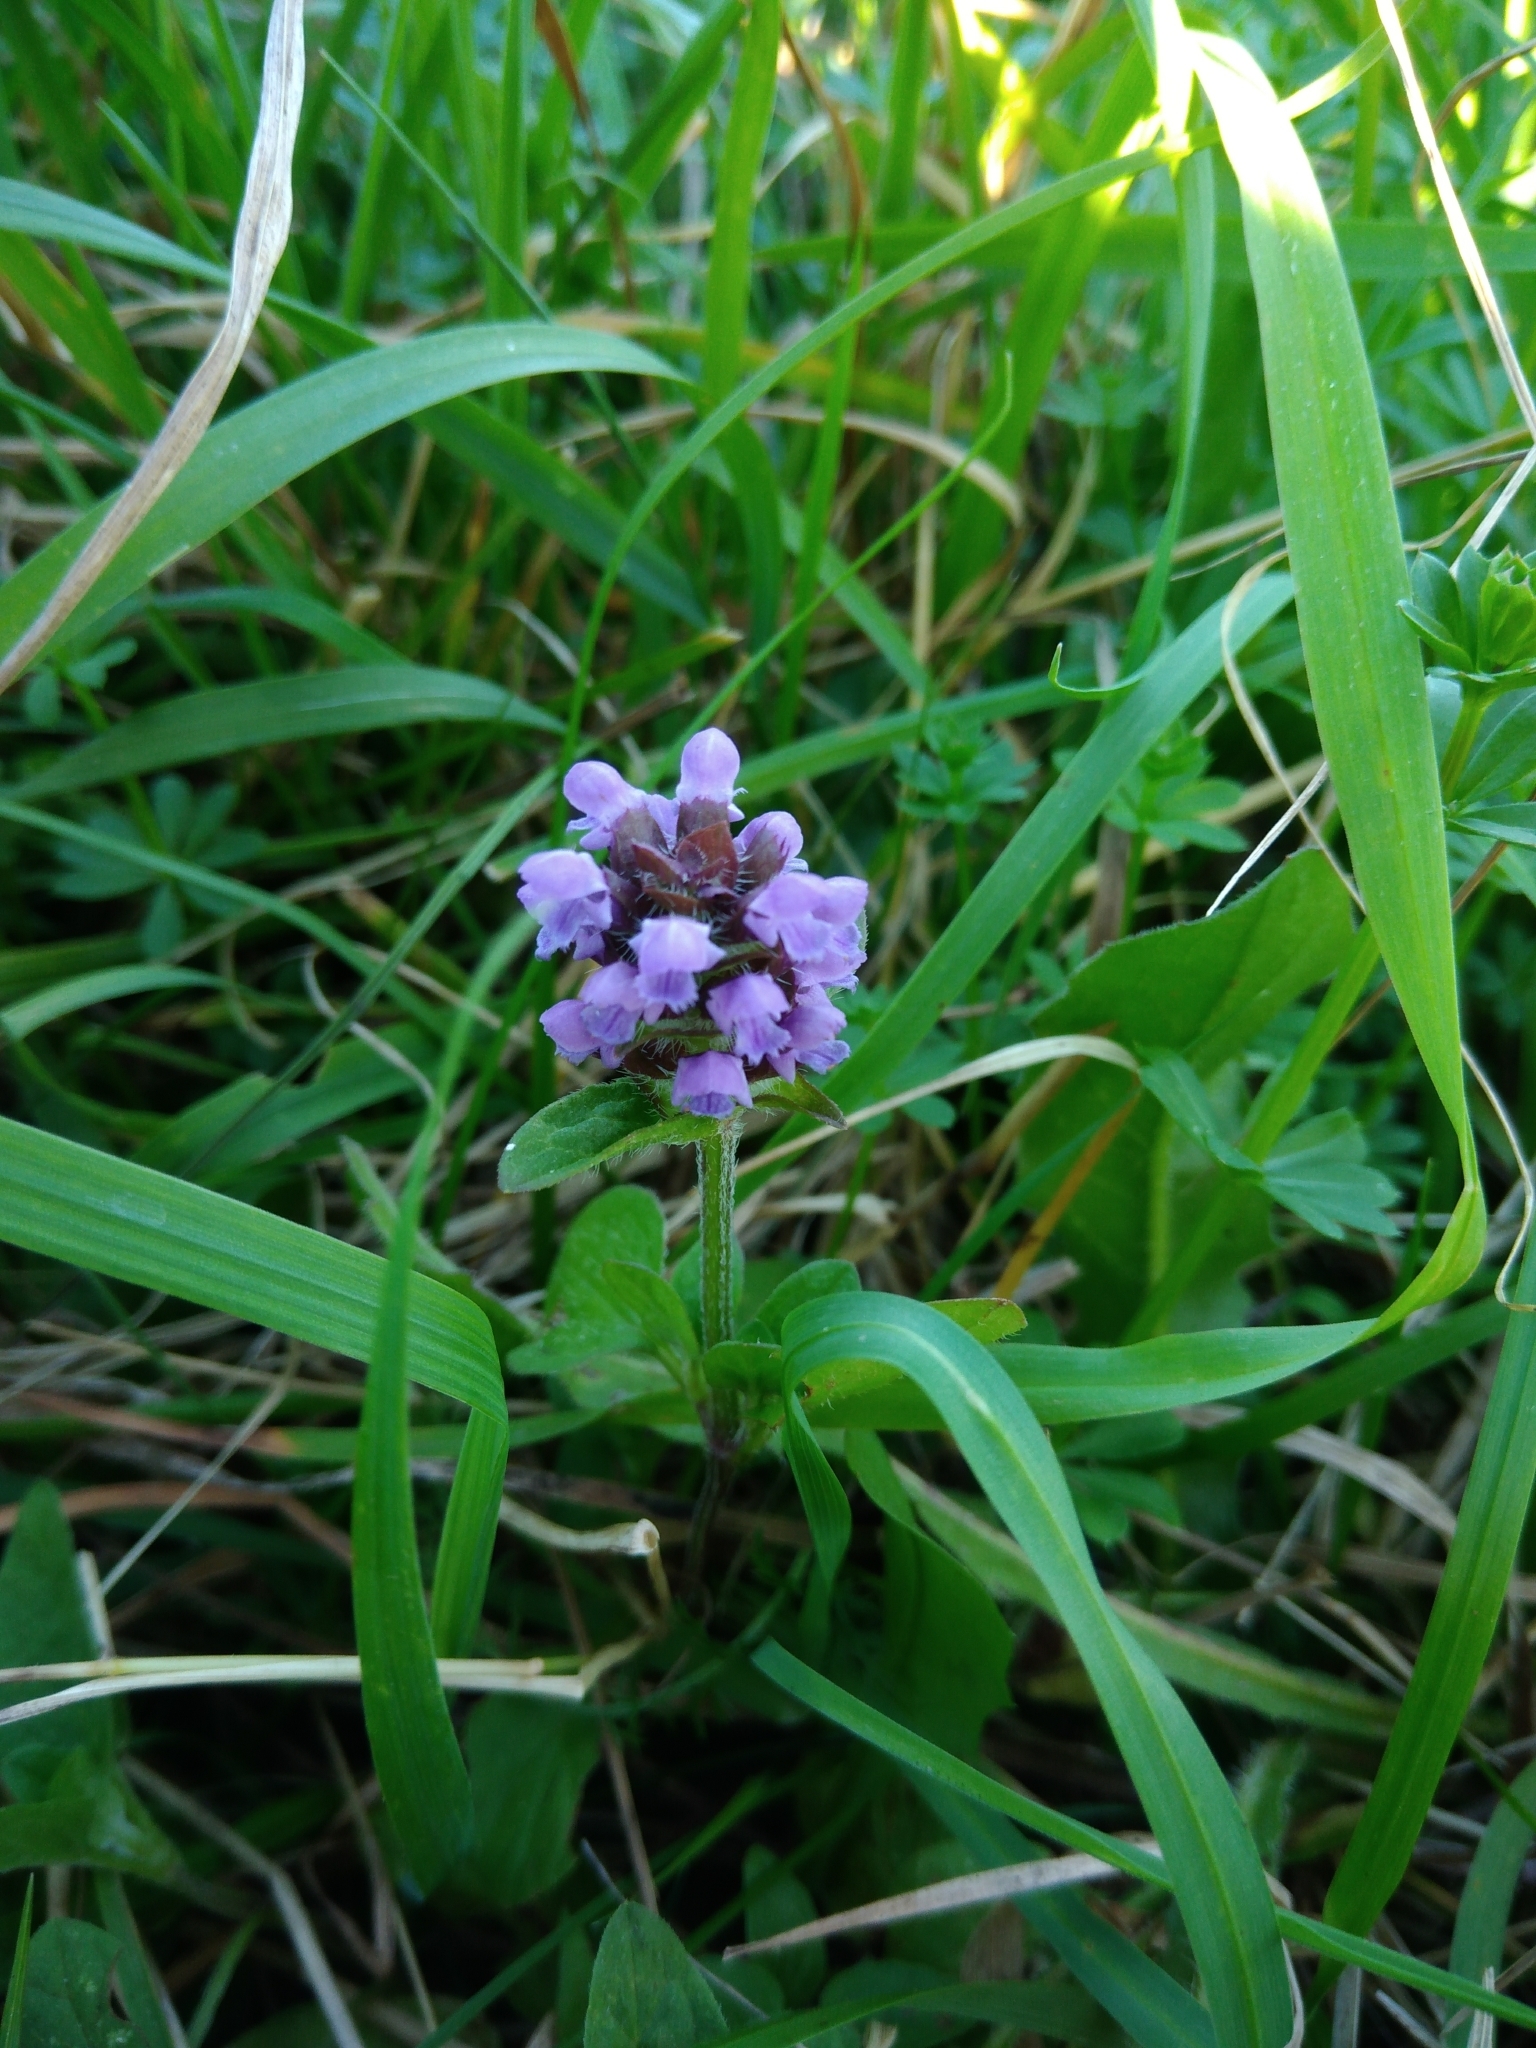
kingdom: Plantae
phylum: Tracheophyta
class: Magnoliopsida
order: Lamiales
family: Lamiaceae
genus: Prunella
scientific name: Prunella vulgaris
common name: Heal-all
